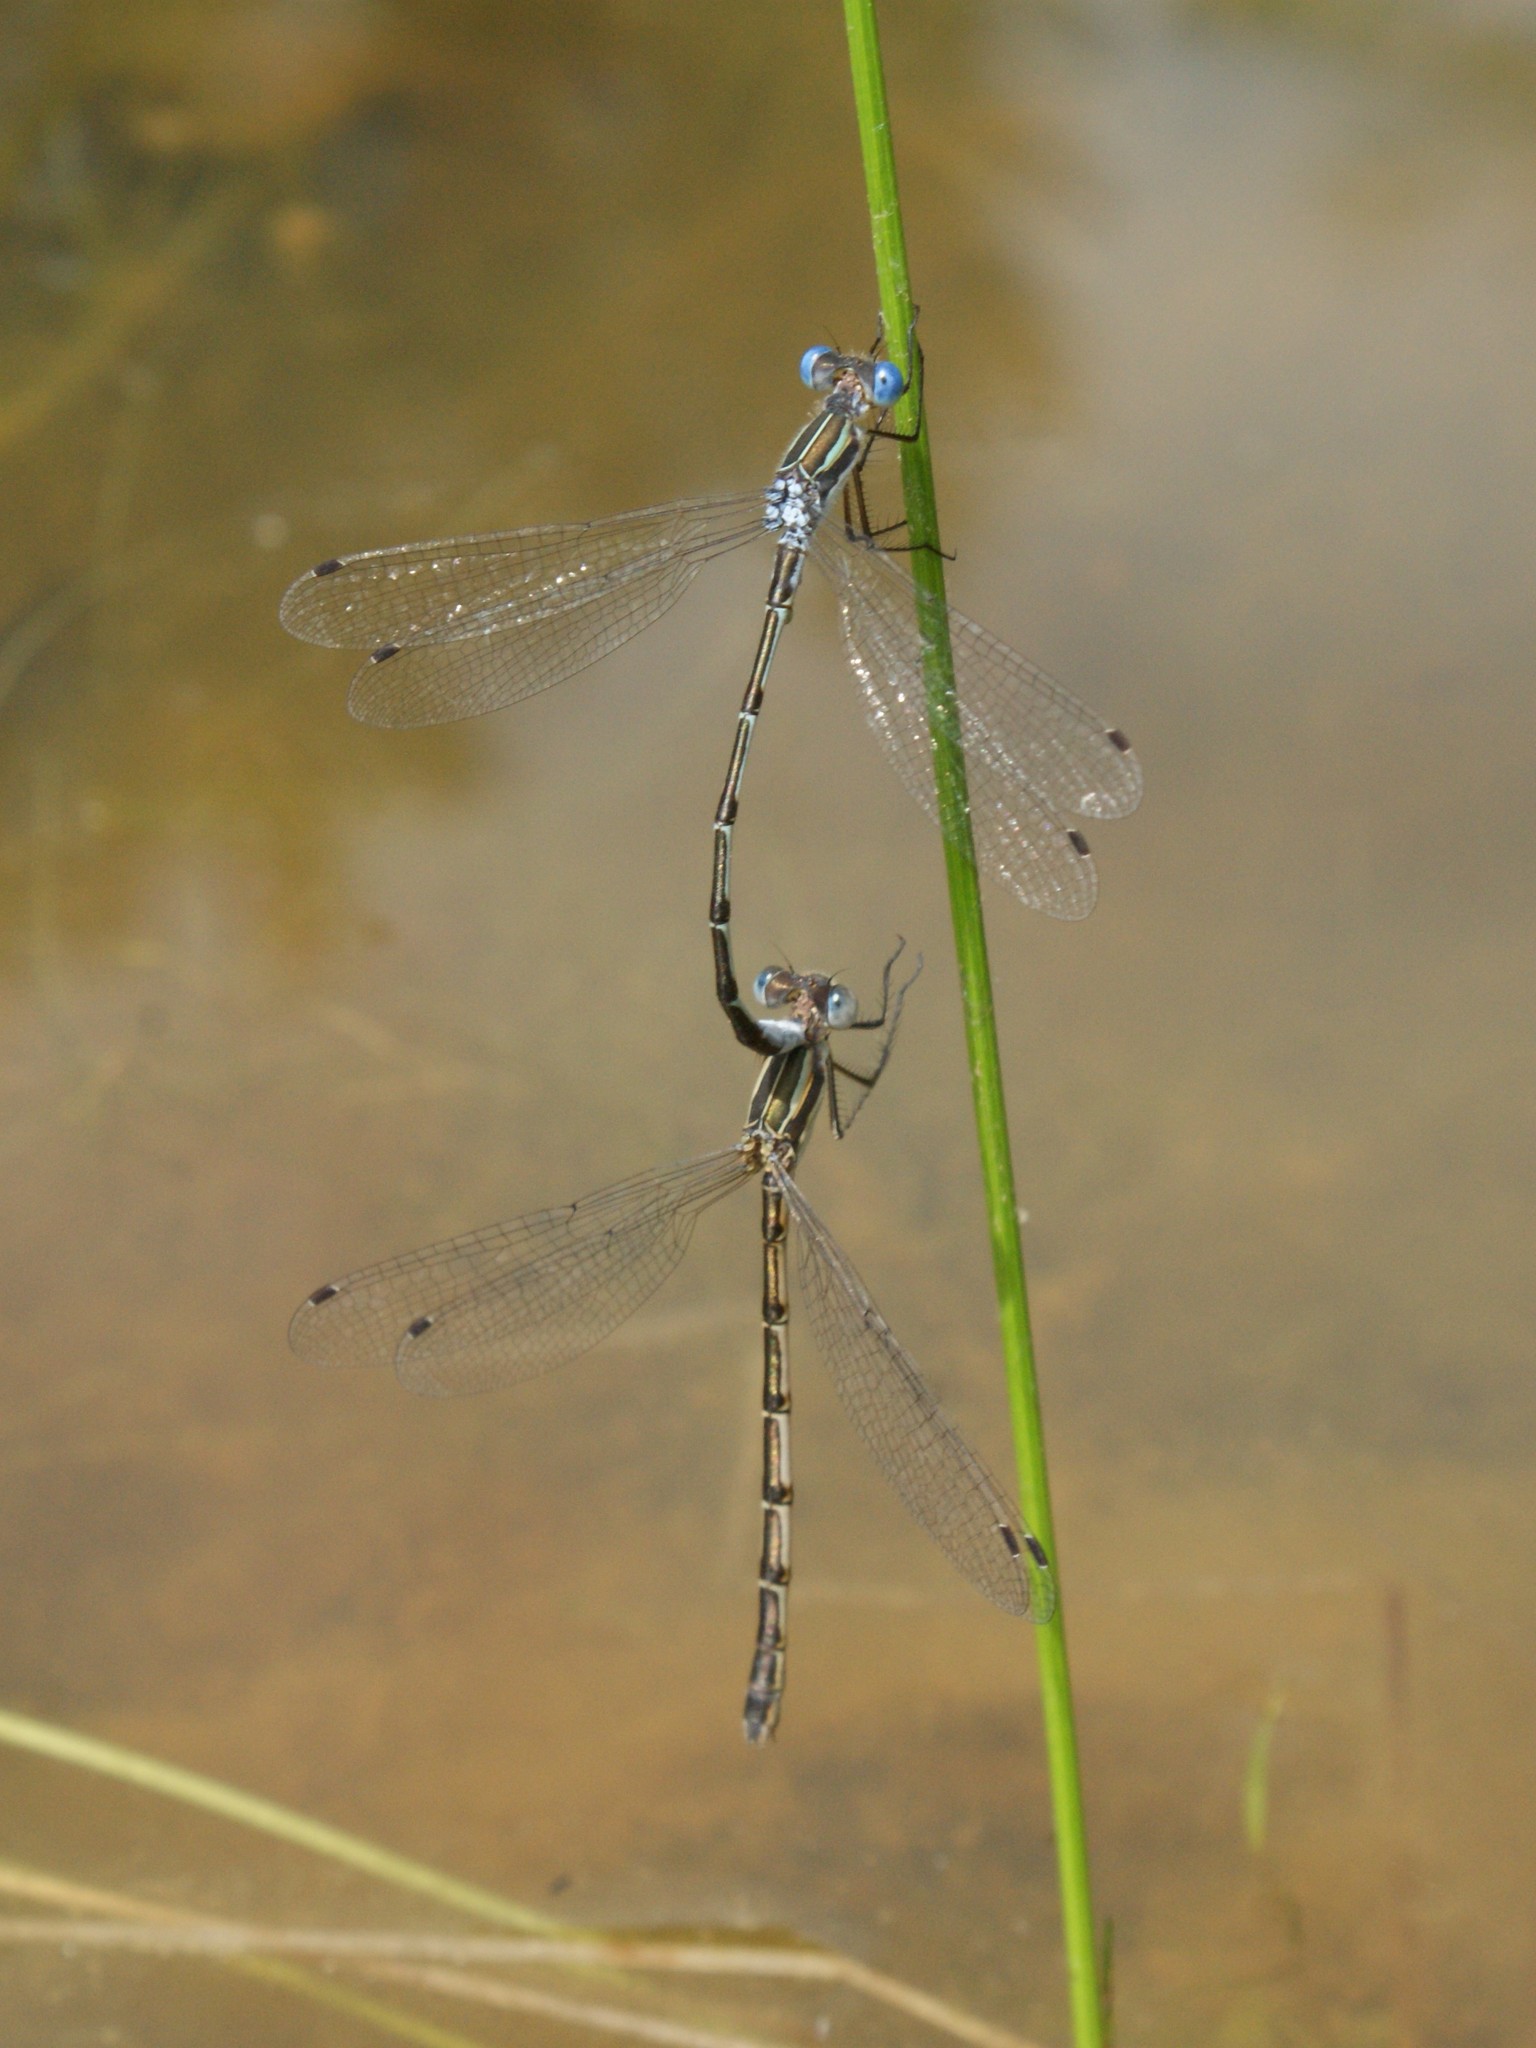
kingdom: Animalia
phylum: Arthropoda
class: Insecta
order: Odonata
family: Lestidae
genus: Lestes
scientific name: Lestes australis
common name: Southern spreadwing
